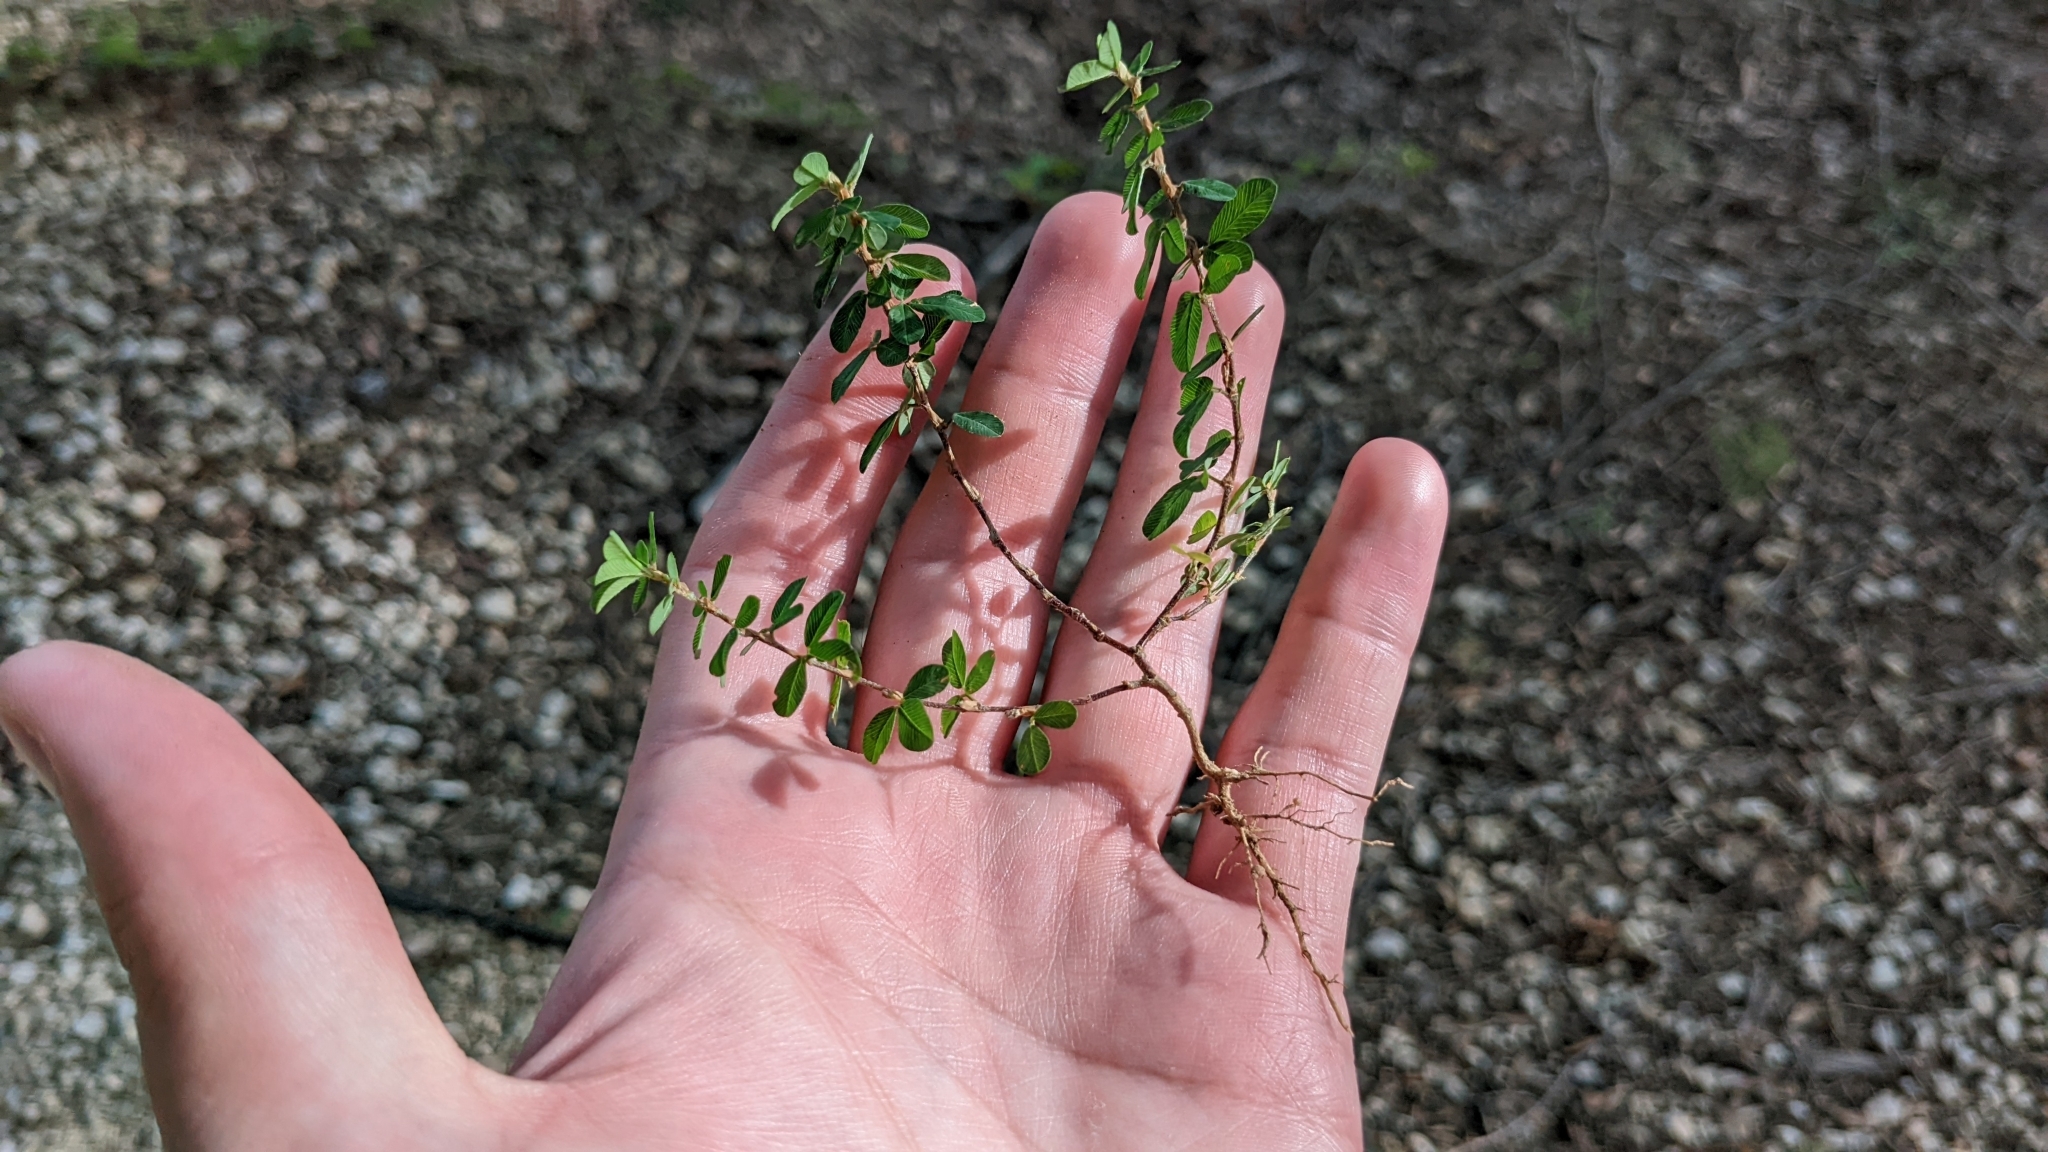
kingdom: Plantae
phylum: Tracheophyta
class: Magnoliopsida
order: Fabales
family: Fabaceae
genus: Kummerowia
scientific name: Kummerowia striata
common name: Japanese clover
